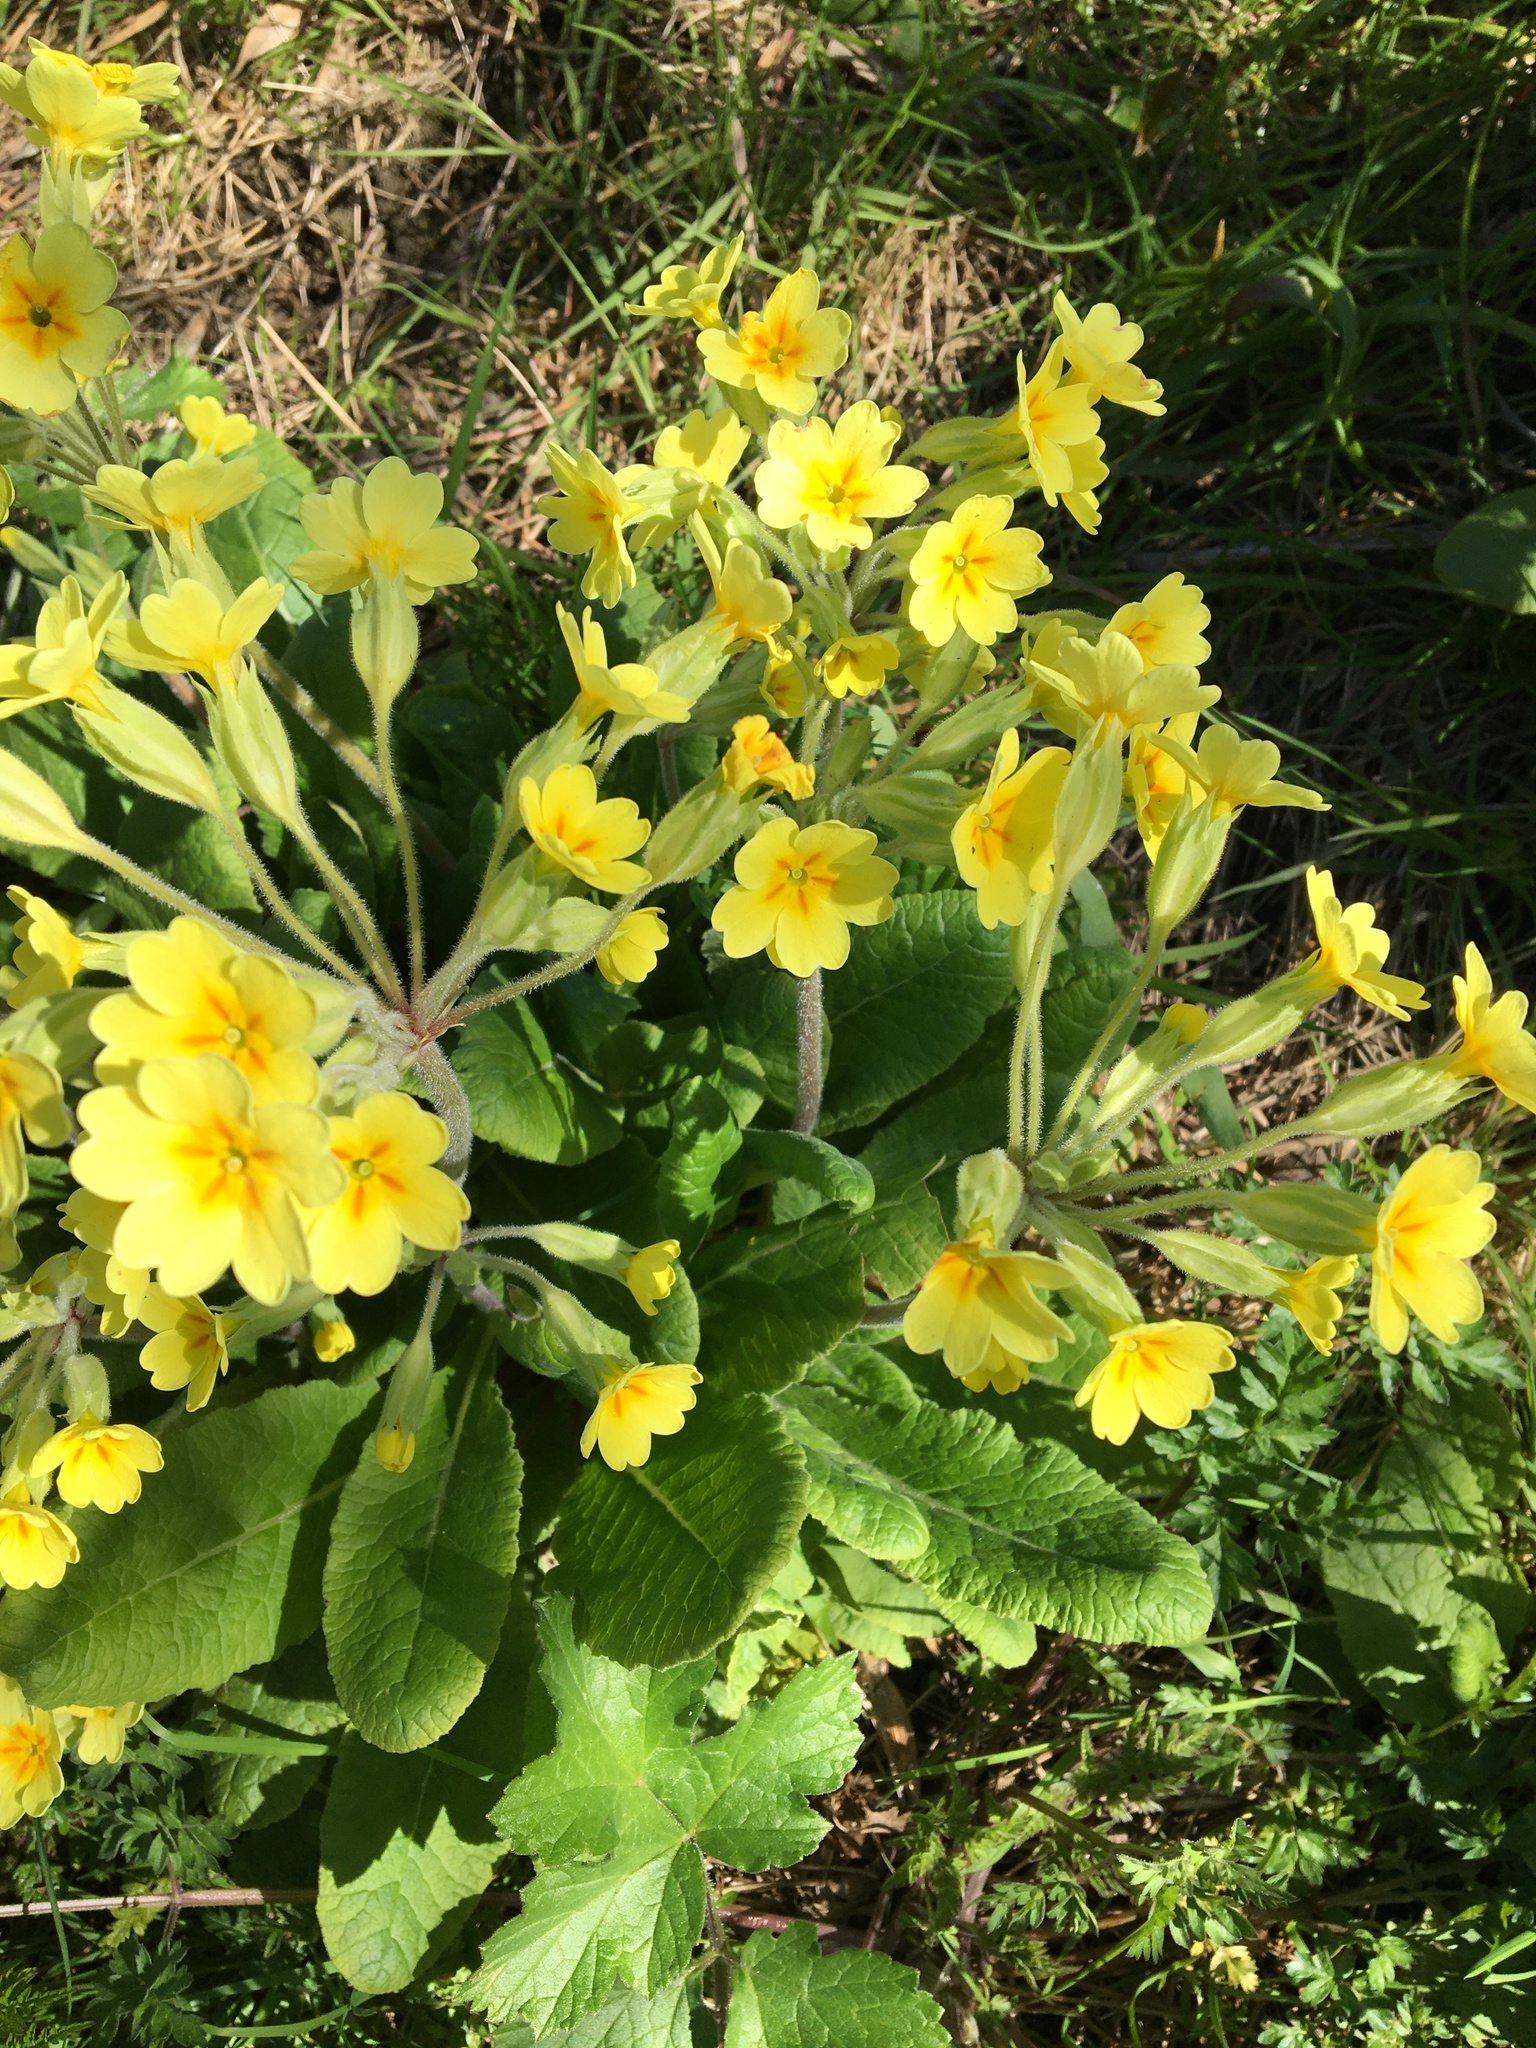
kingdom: Plantae
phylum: Tracheophyta
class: Magnoliopsida
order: Ericales
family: Primulaceae
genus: Primula
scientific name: Primula polyantha
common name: False oxlip
